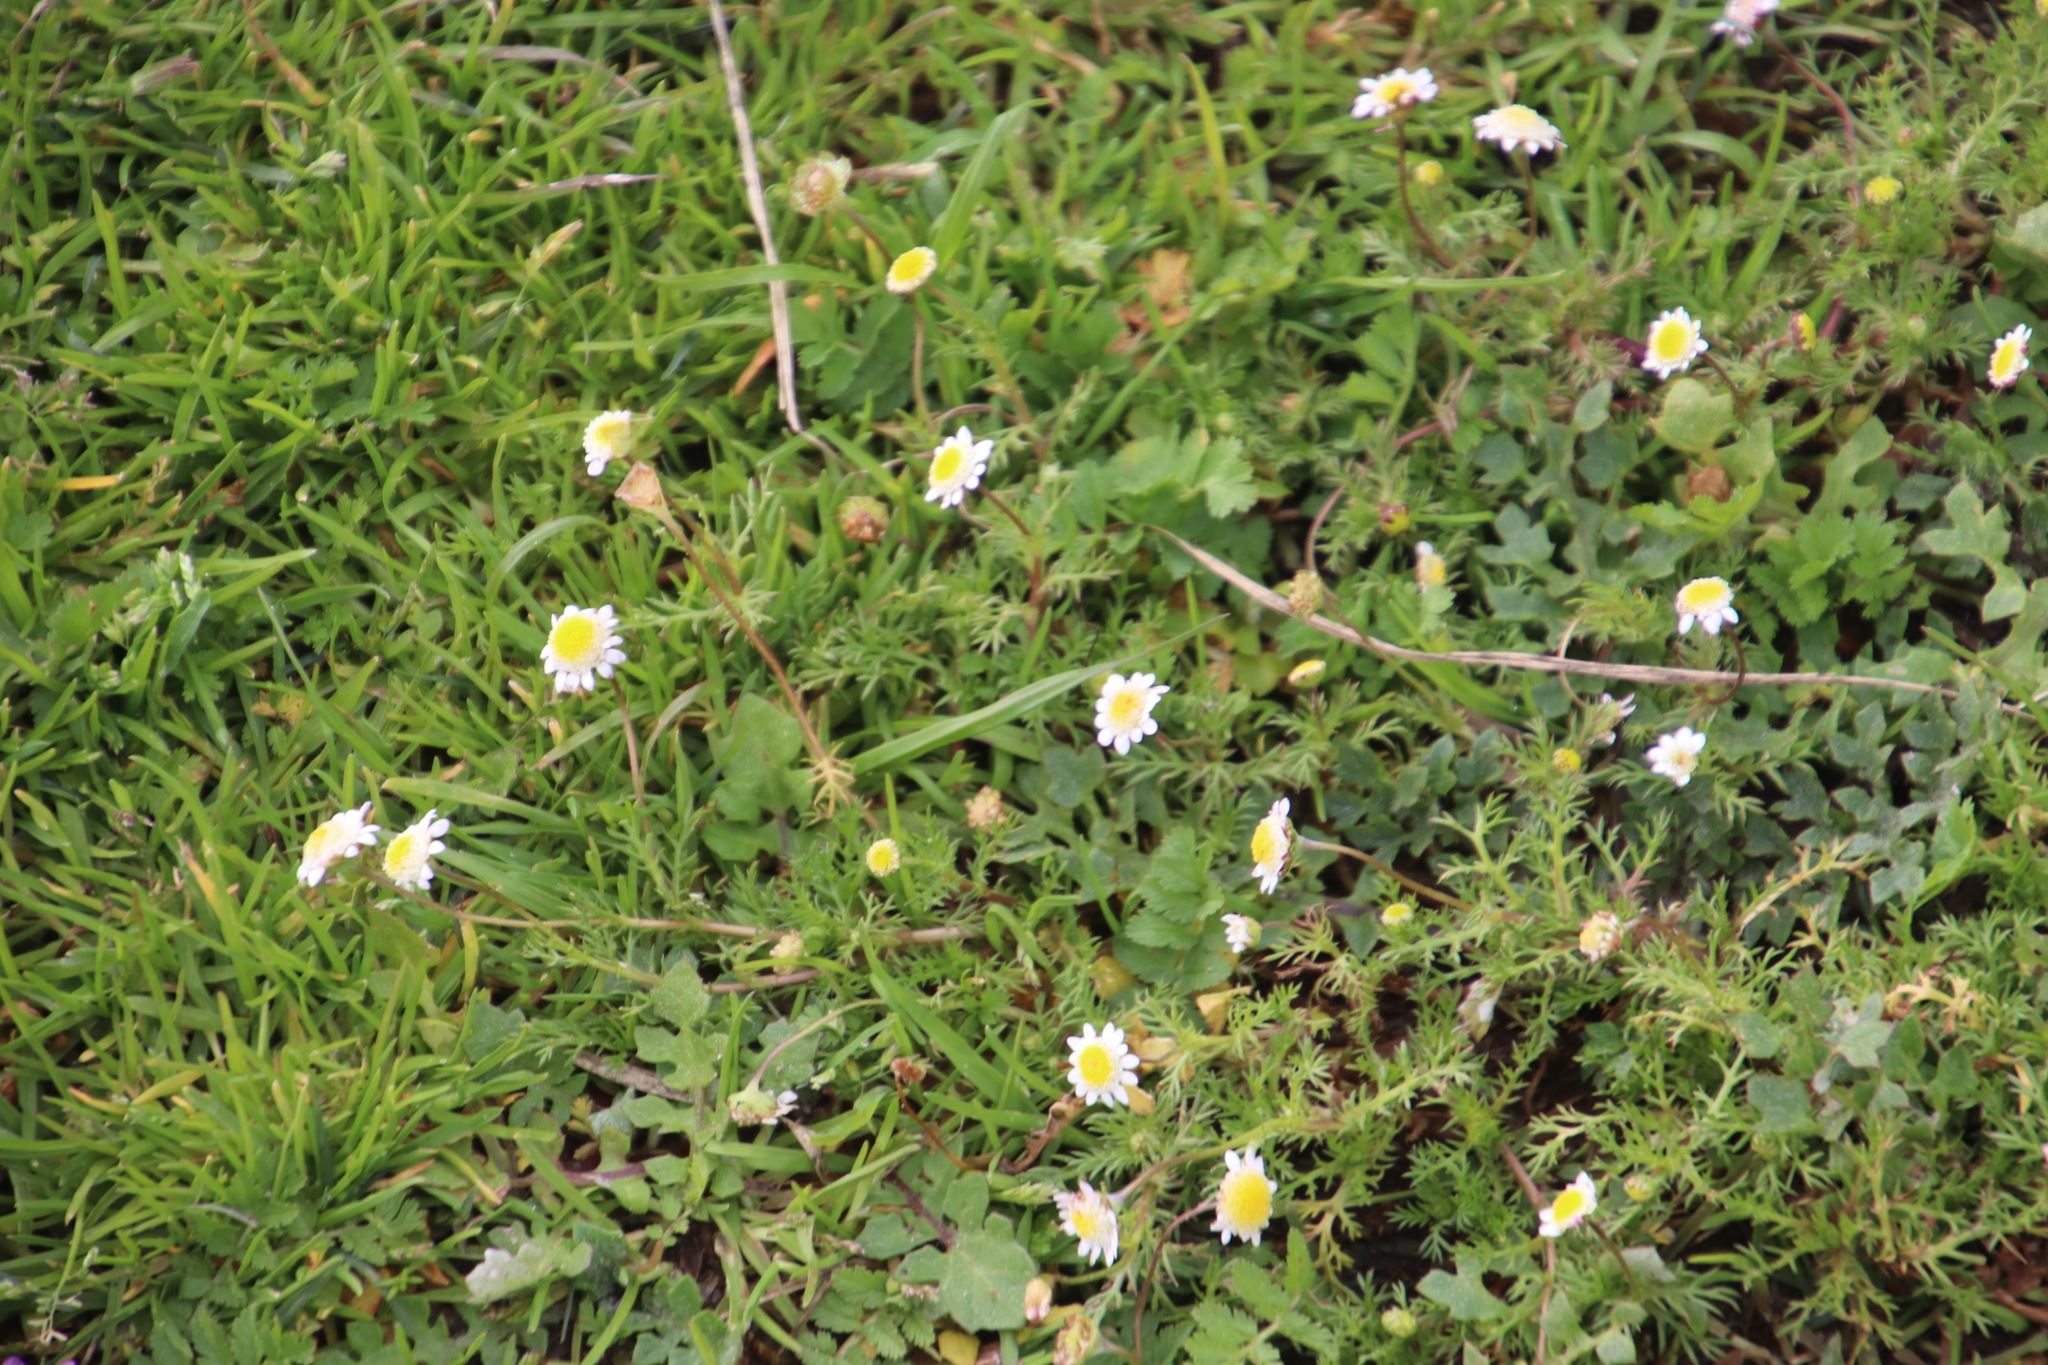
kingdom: Plantae
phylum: Tracheophyta
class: Magnoliopsida
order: Asterales
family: Asteraceae
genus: Cotula
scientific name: Cotula turbinata
